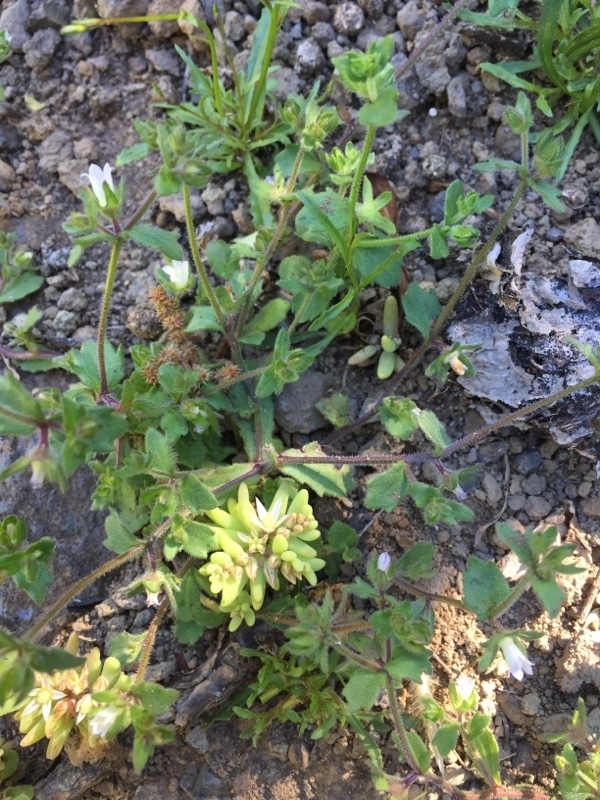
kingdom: Plantae
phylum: Tracheophyta
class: Magnoliopsida
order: Asterales
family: Campanulaceae
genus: Campanula
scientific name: Campanula erinus
